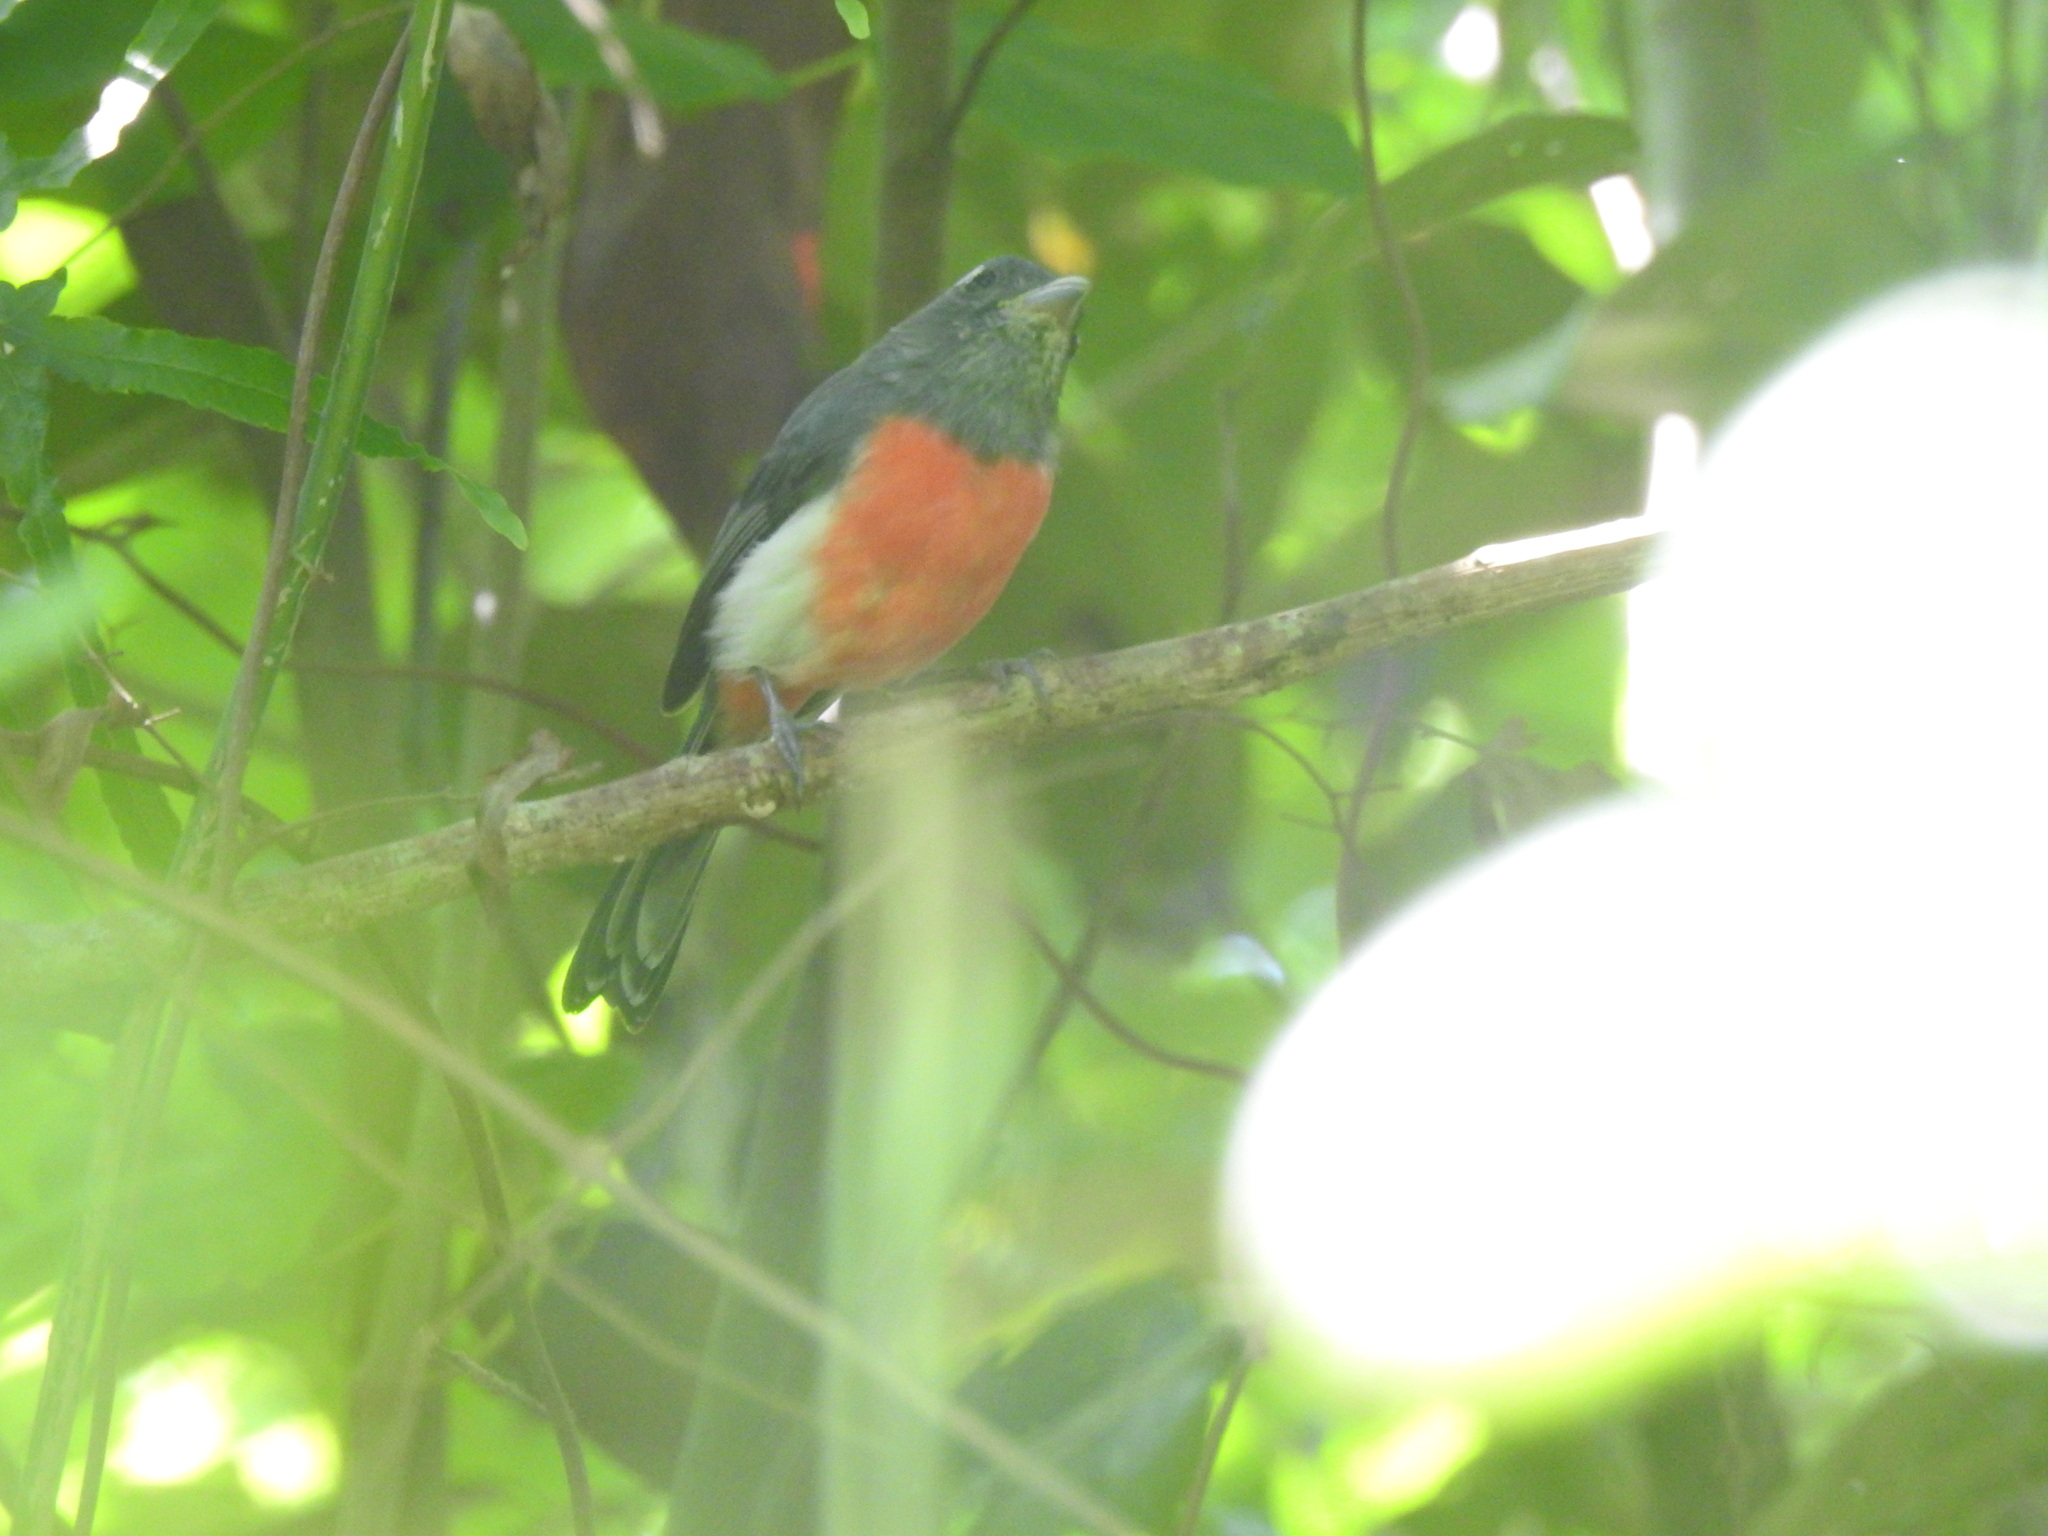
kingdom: Animalia
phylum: Chordata
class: Aves
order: Passeriformes
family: Cardinalidae
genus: Granatellus
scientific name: Granatellus sallaei
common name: Gray-throated chat
